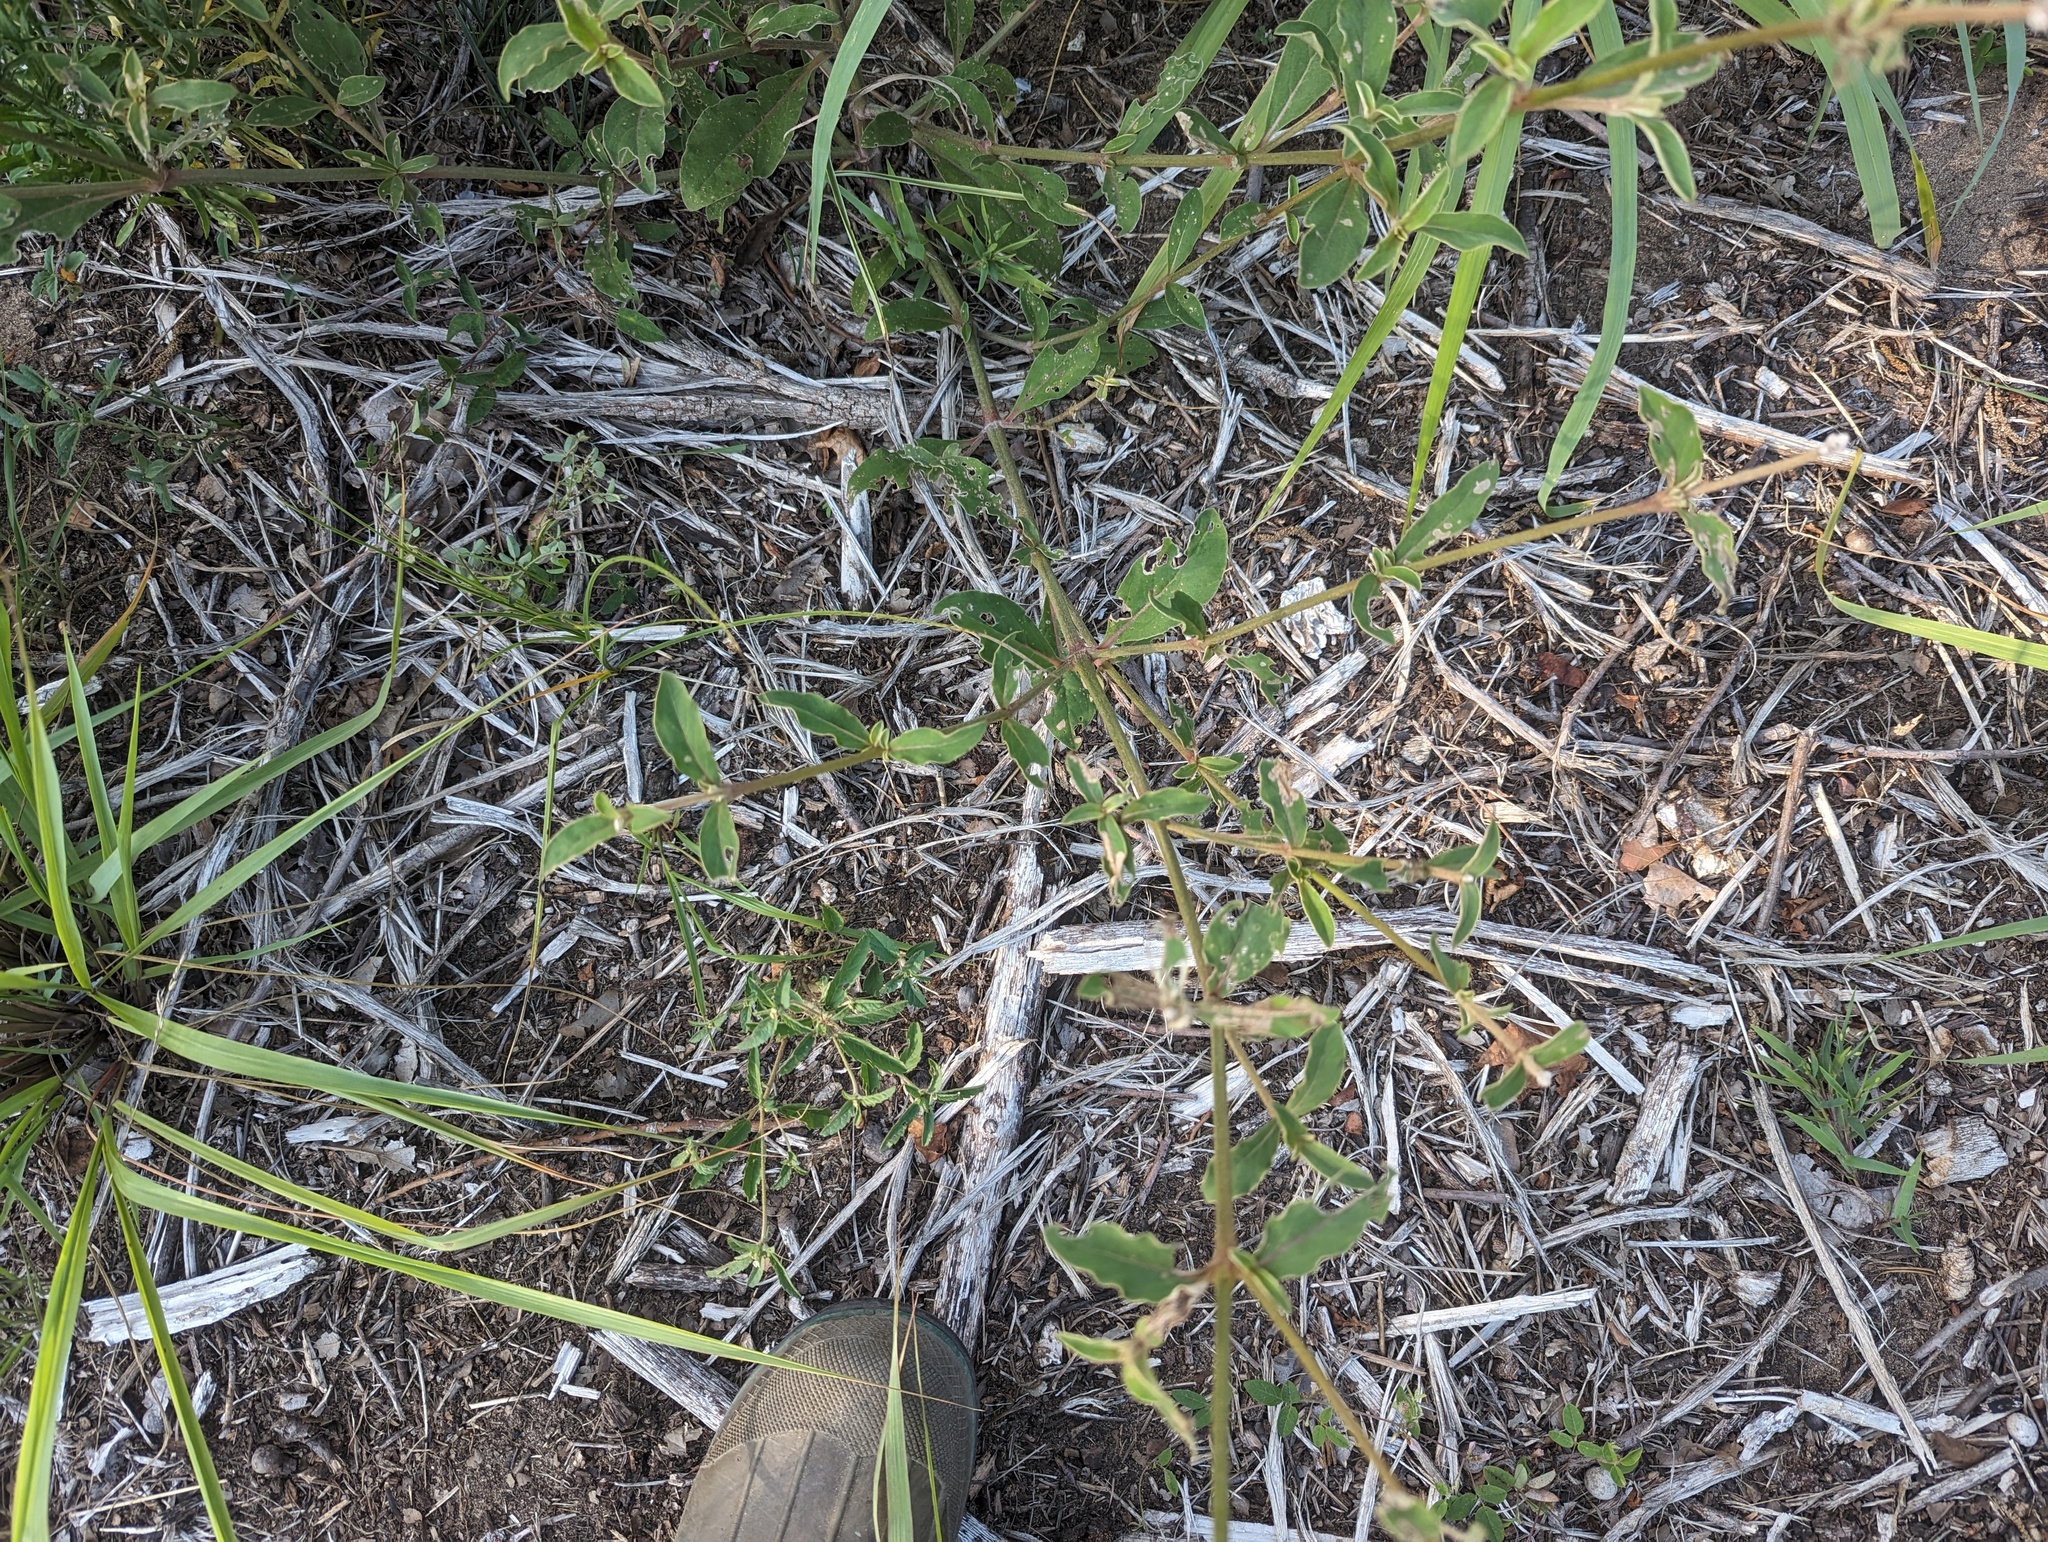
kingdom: Plantae
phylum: Tracheophyta
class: Magnoliopsida
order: Caryophyllales
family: Amaranthaceae
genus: Froelichia
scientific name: Froelichia floridana
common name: Florida snake-cotton
